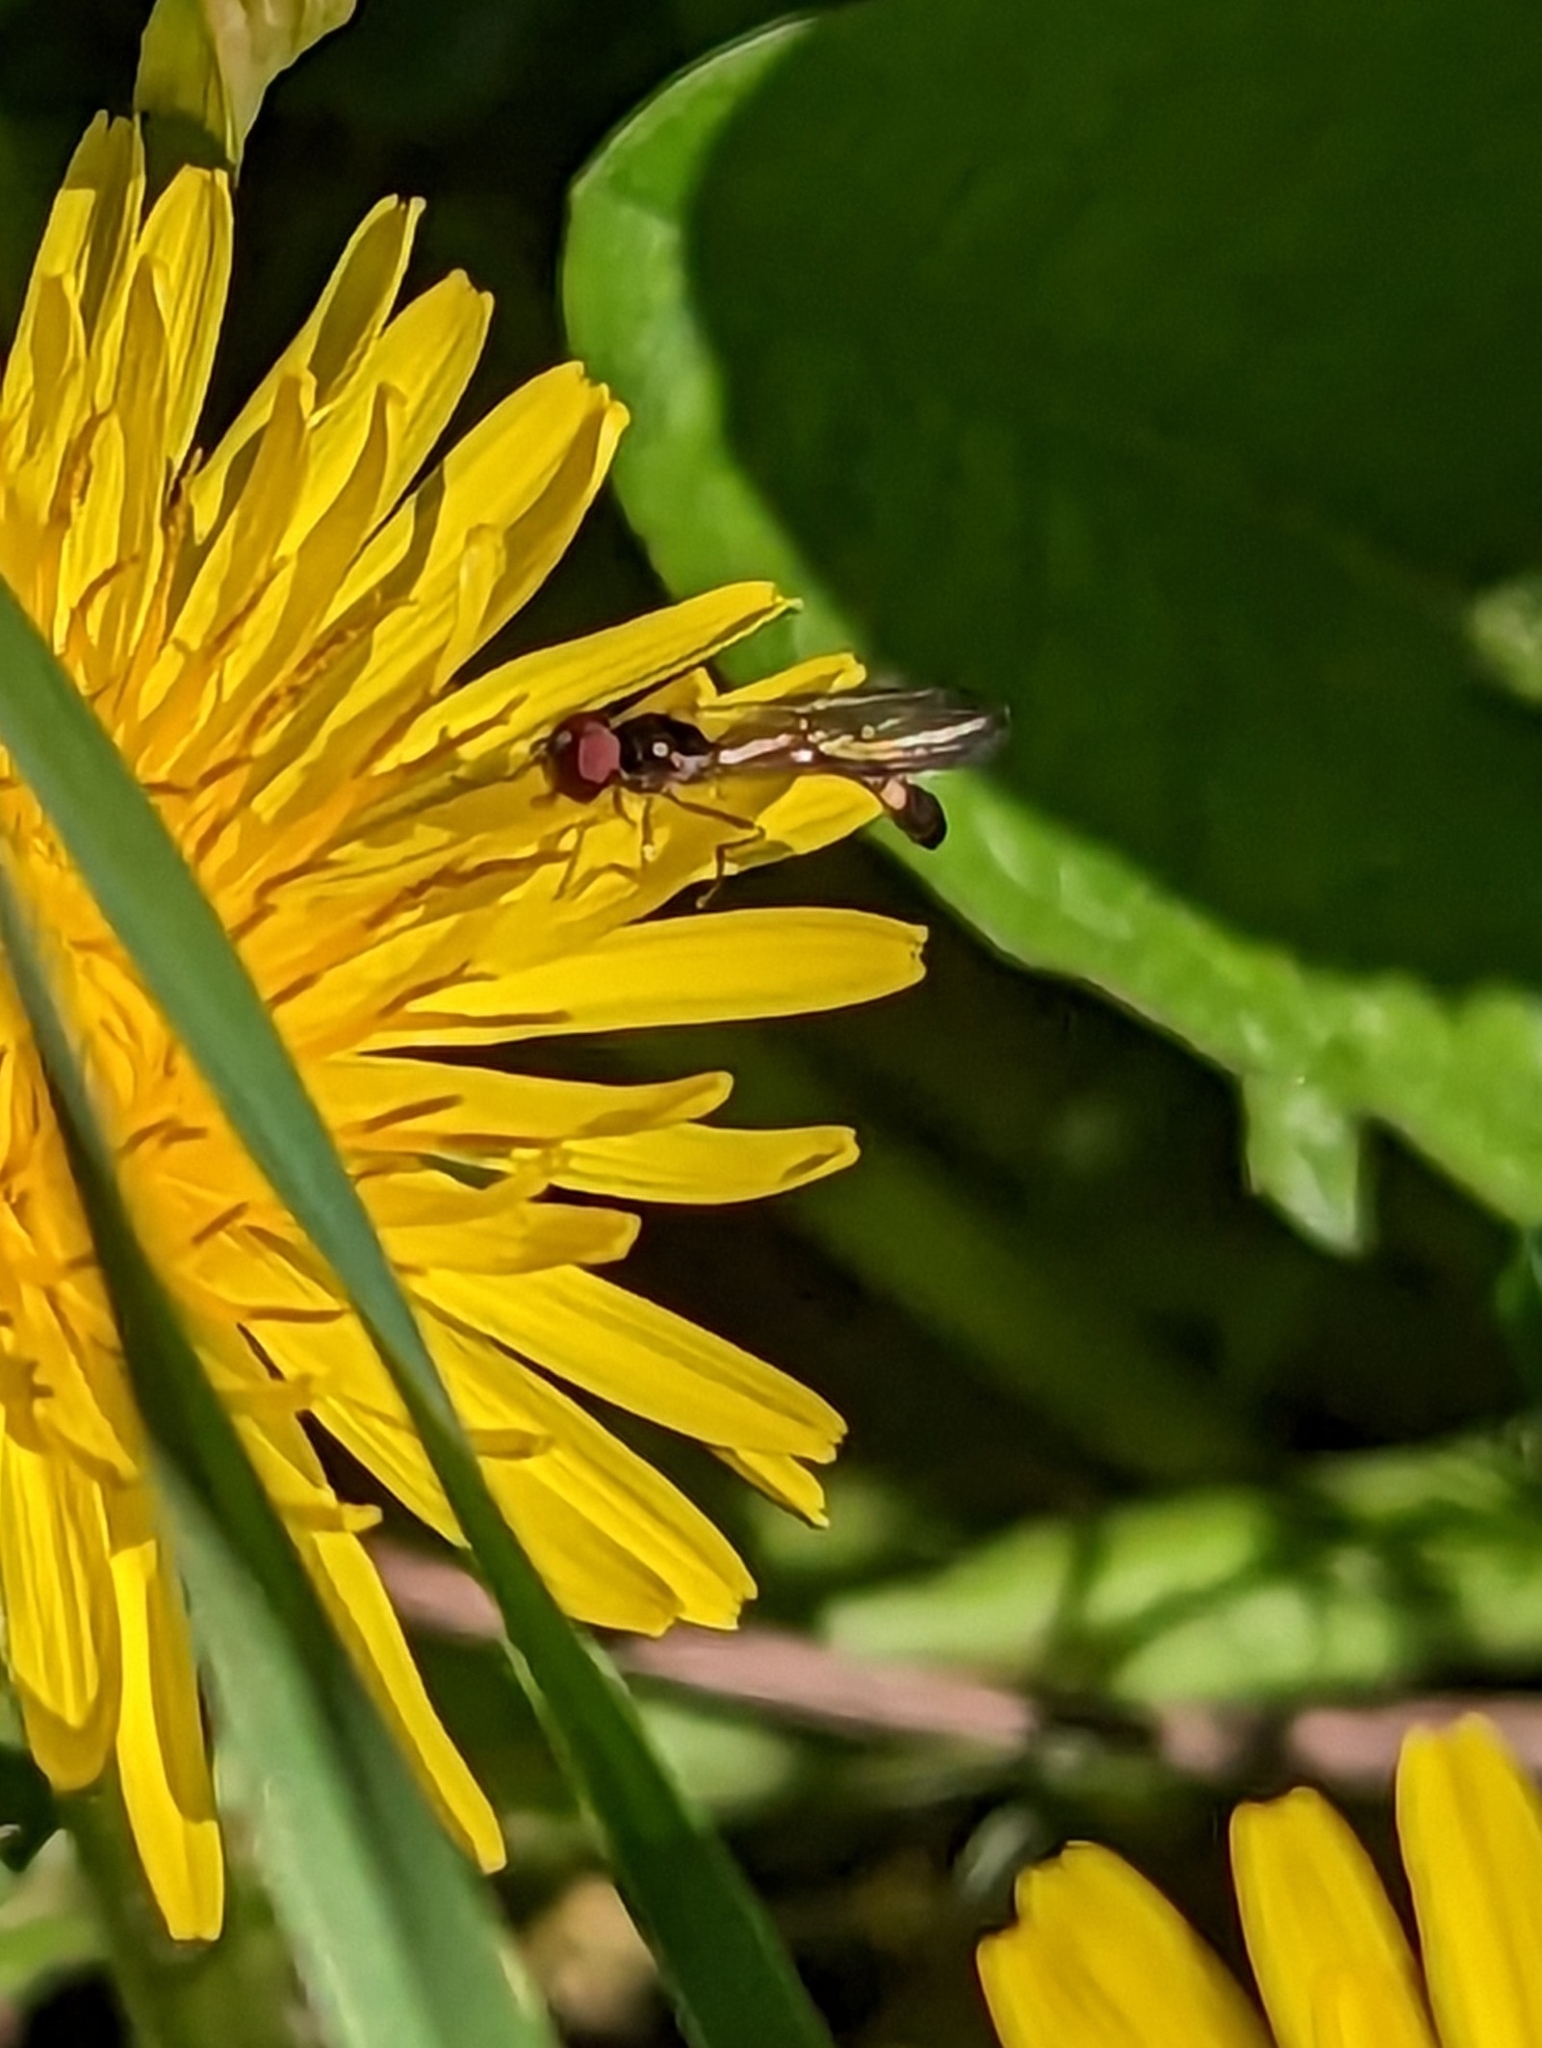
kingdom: Animalia
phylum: Arthropoda
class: Insecta
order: Diptera
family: Syrphidae
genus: Baccha
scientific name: Baccha elongata
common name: Common dainty
